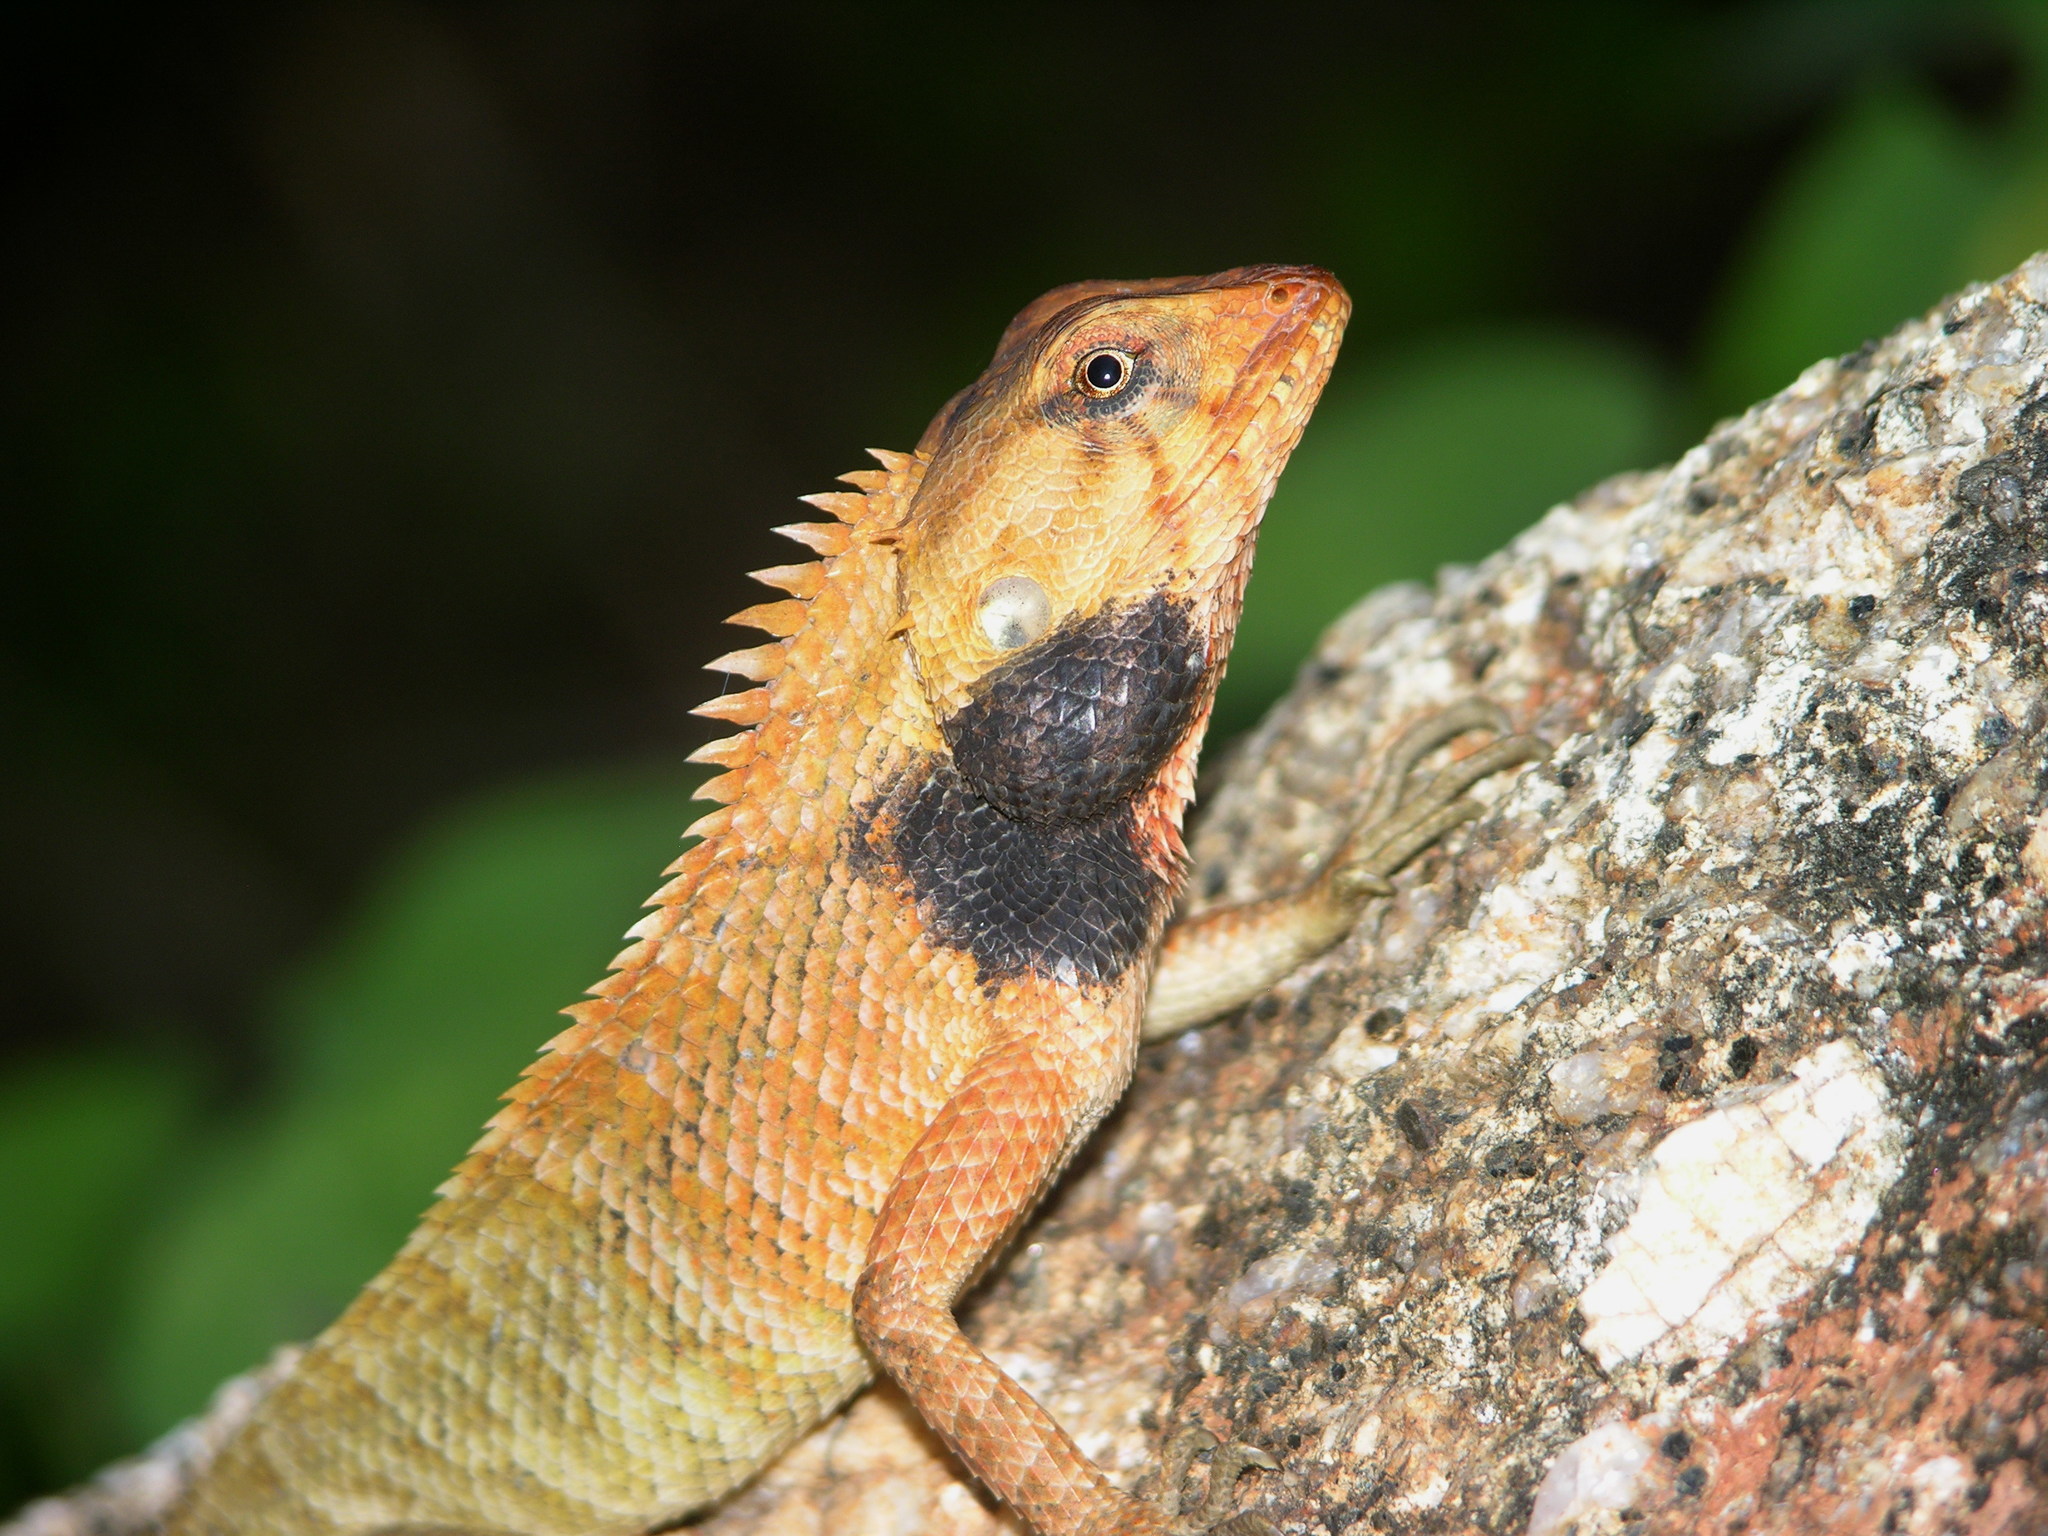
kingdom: Animalia
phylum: Chordata
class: Squamata
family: Agamidae
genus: Calotes
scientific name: Calotes versicolor
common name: Oriental garden lizard
